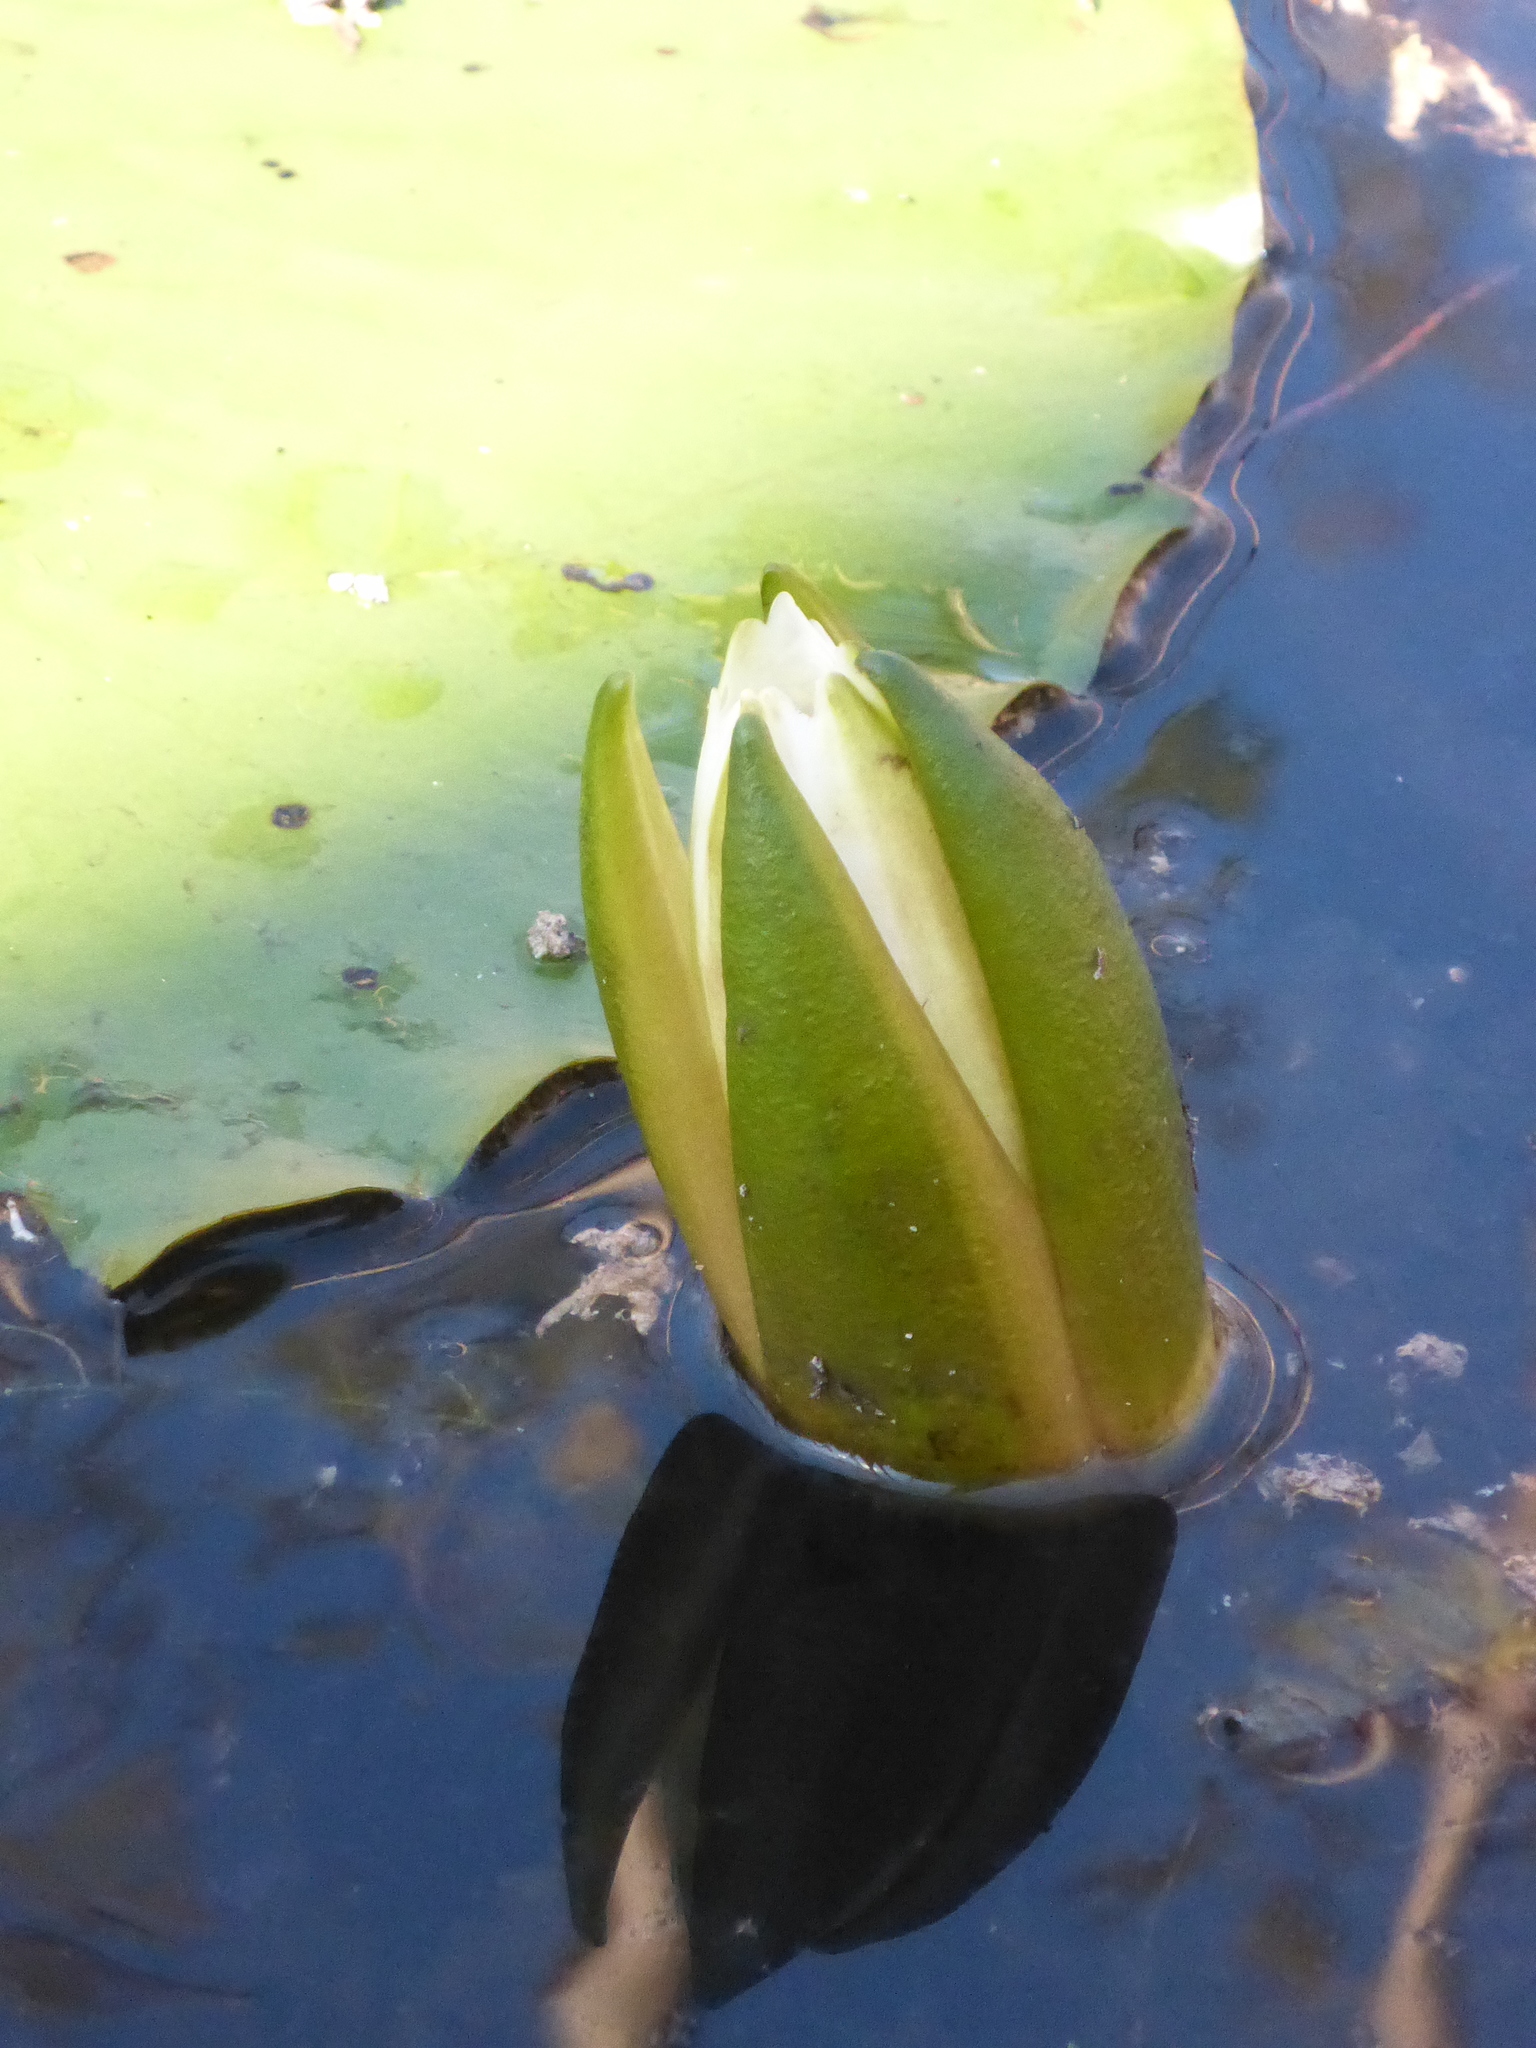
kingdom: Plantae
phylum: Tracheophyta
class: Magnoliopsida
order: Nymphaeales
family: Nymphaeaceae
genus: Nymphaea
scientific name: Nymphaea odorata
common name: Fragrant water-lily
